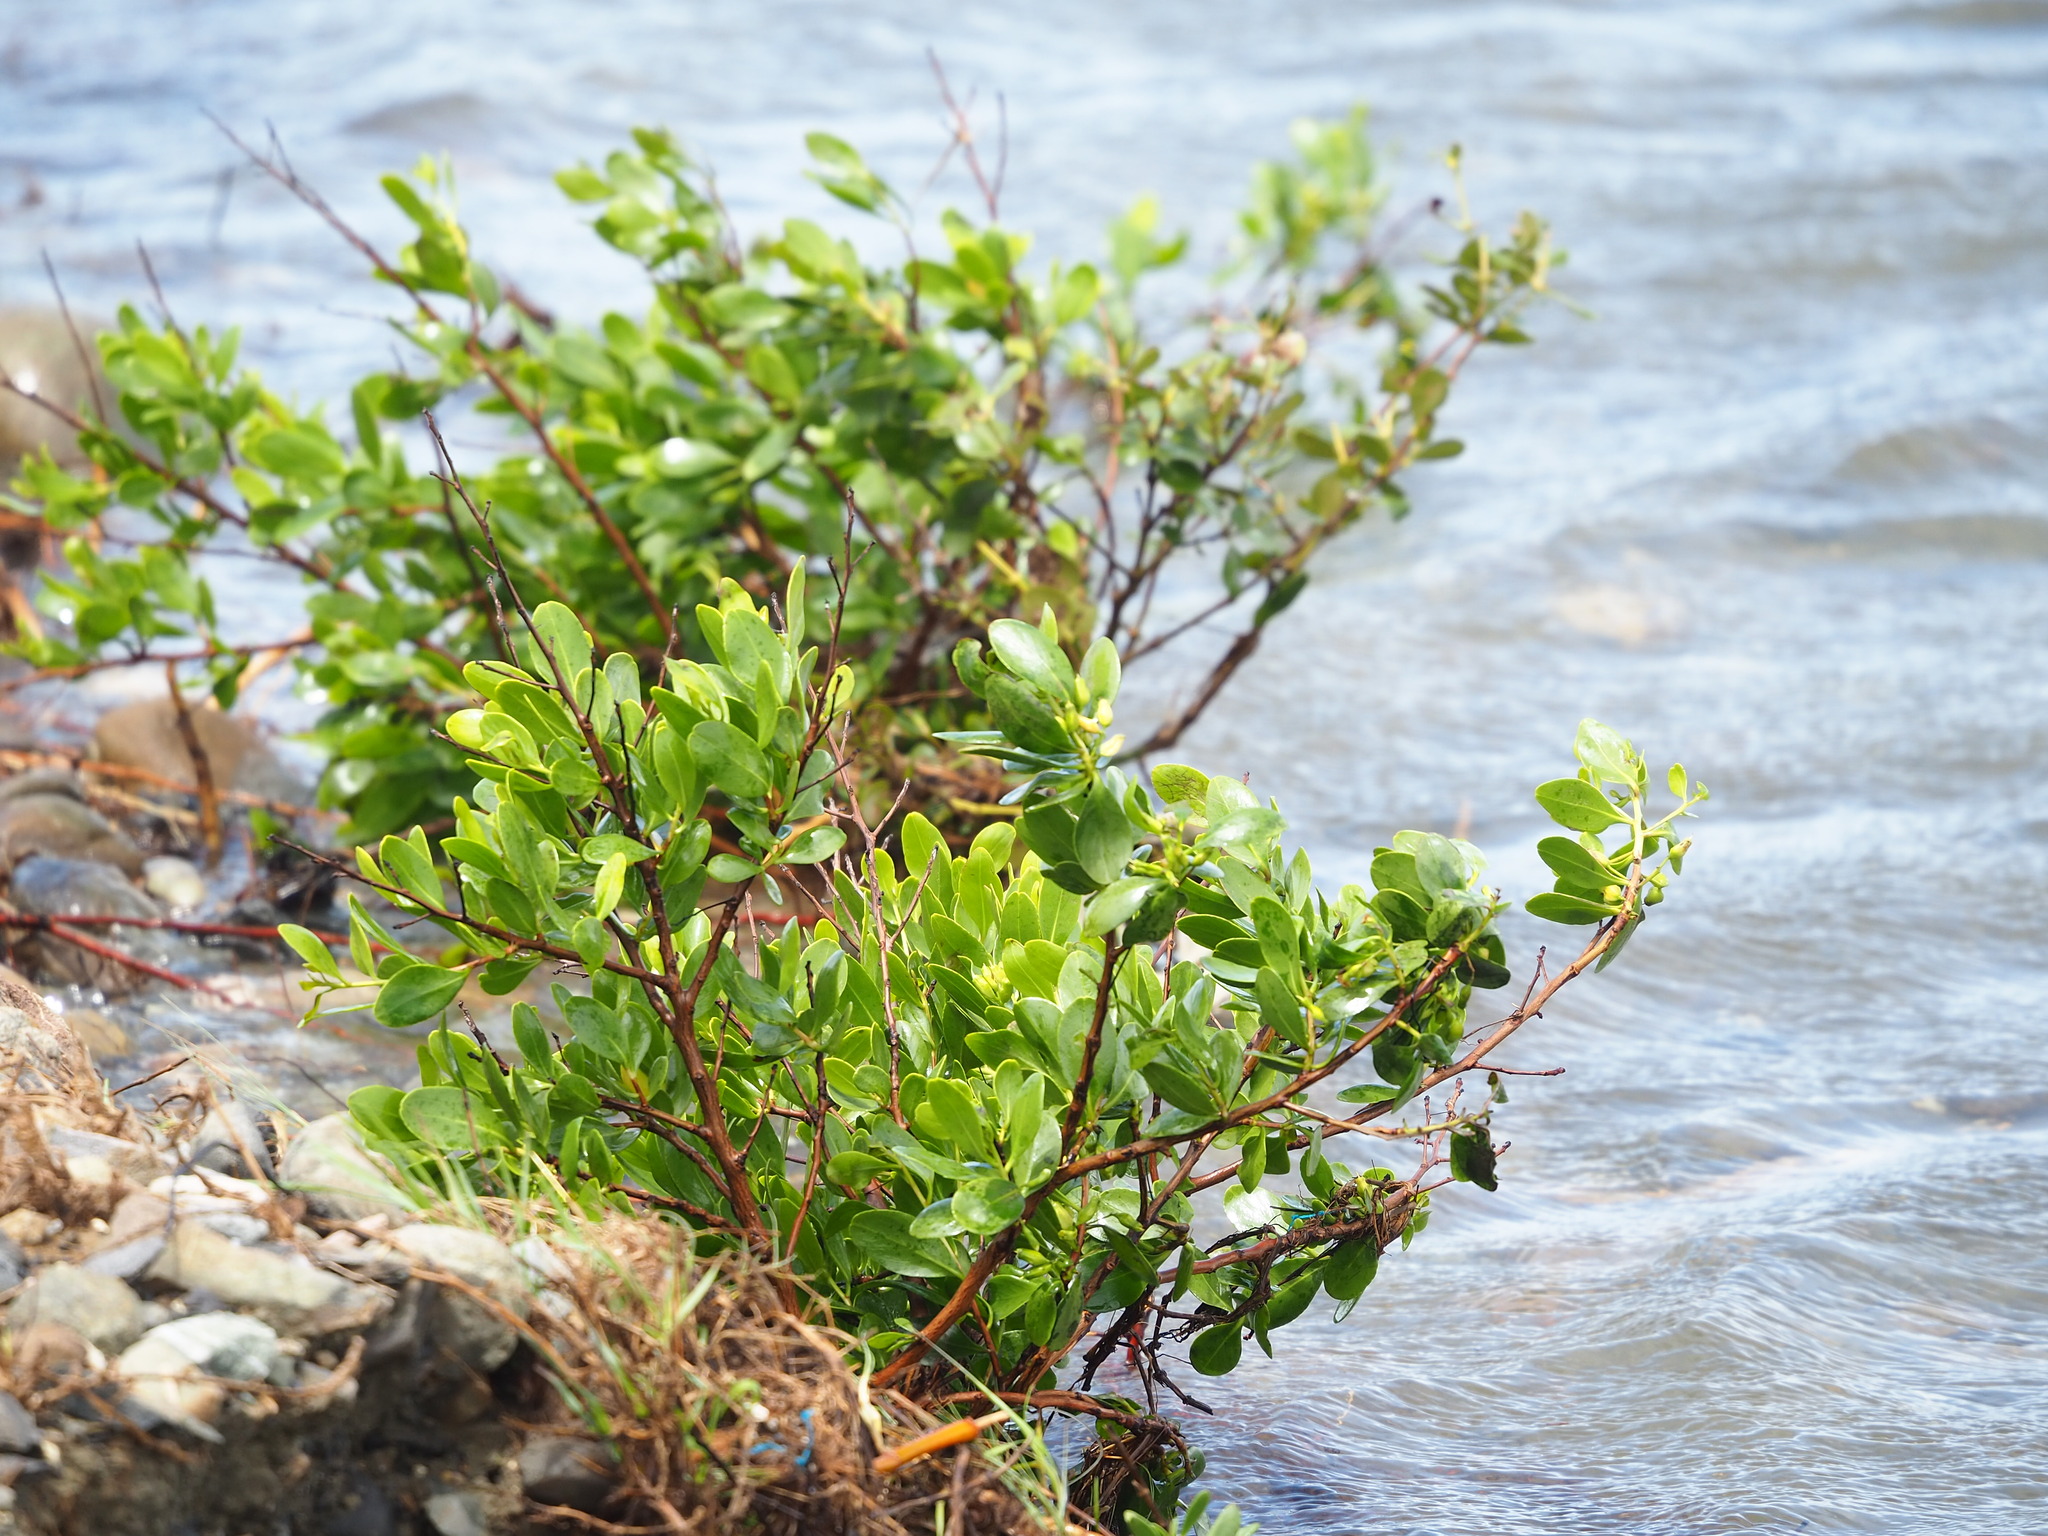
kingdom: Plantae
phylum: Tracheophyta
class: Magnoliopsida
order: Myrtales
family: Combretaceae
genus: Lumnitzera
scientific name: Lumnitzera racemosa
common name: White-flowered black mangrove
